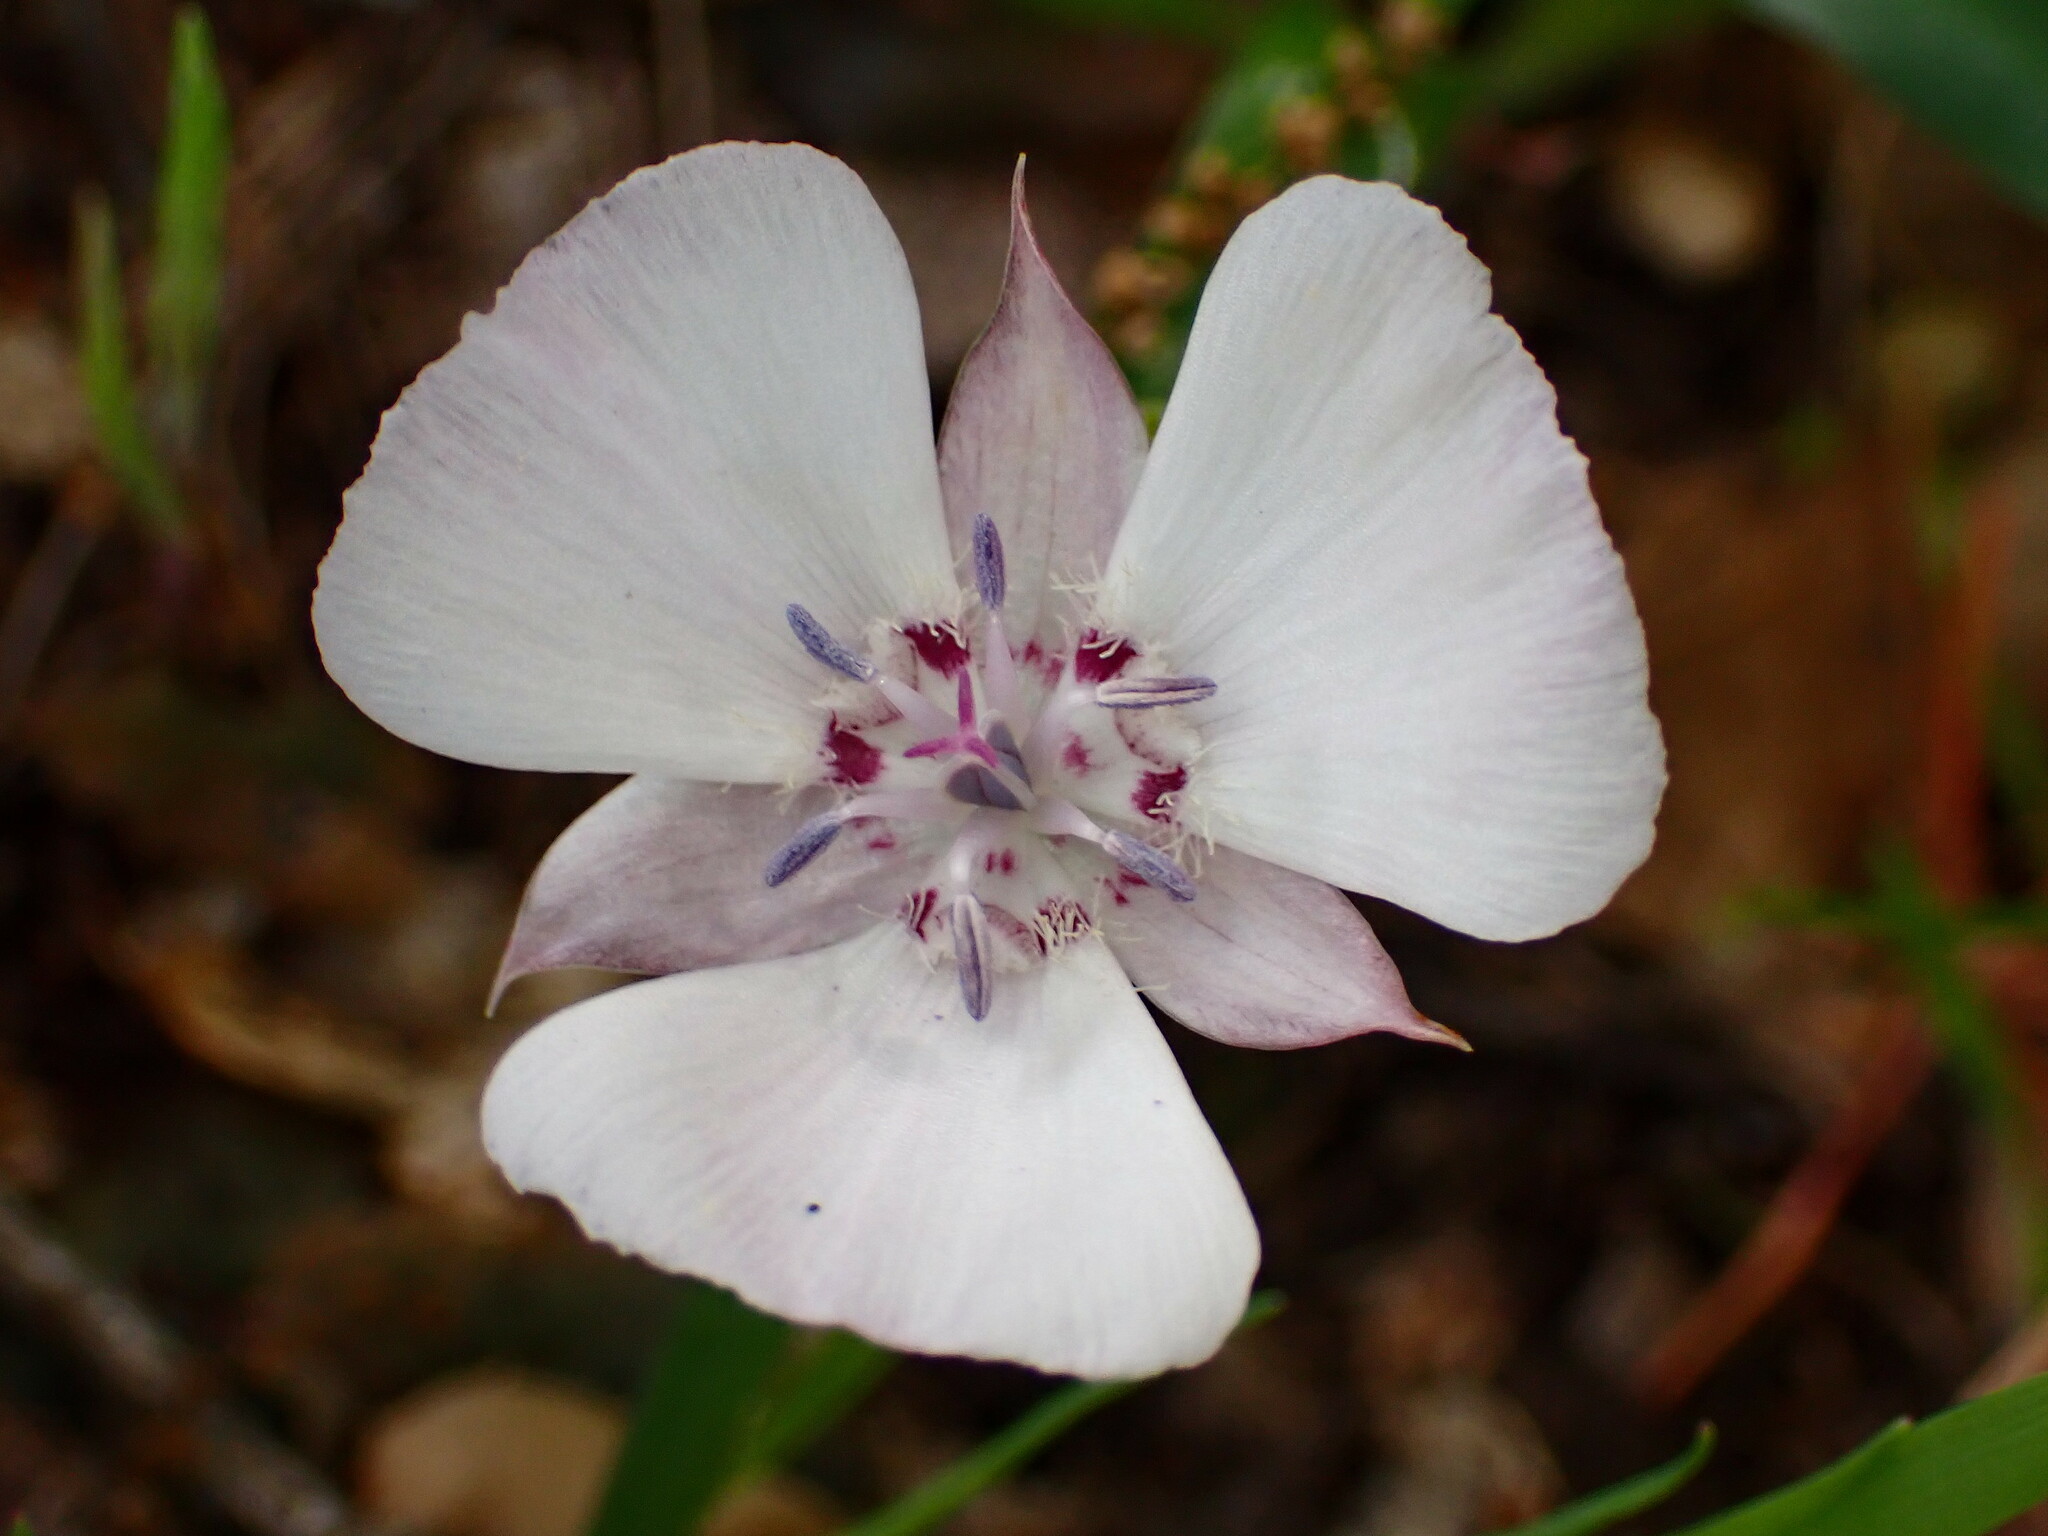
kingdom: Plantae
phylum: Tracheophyta
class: Liliopsida
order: Liliales
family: Liliaceae
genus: Calochortus
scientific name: Calochortus umbellatus
